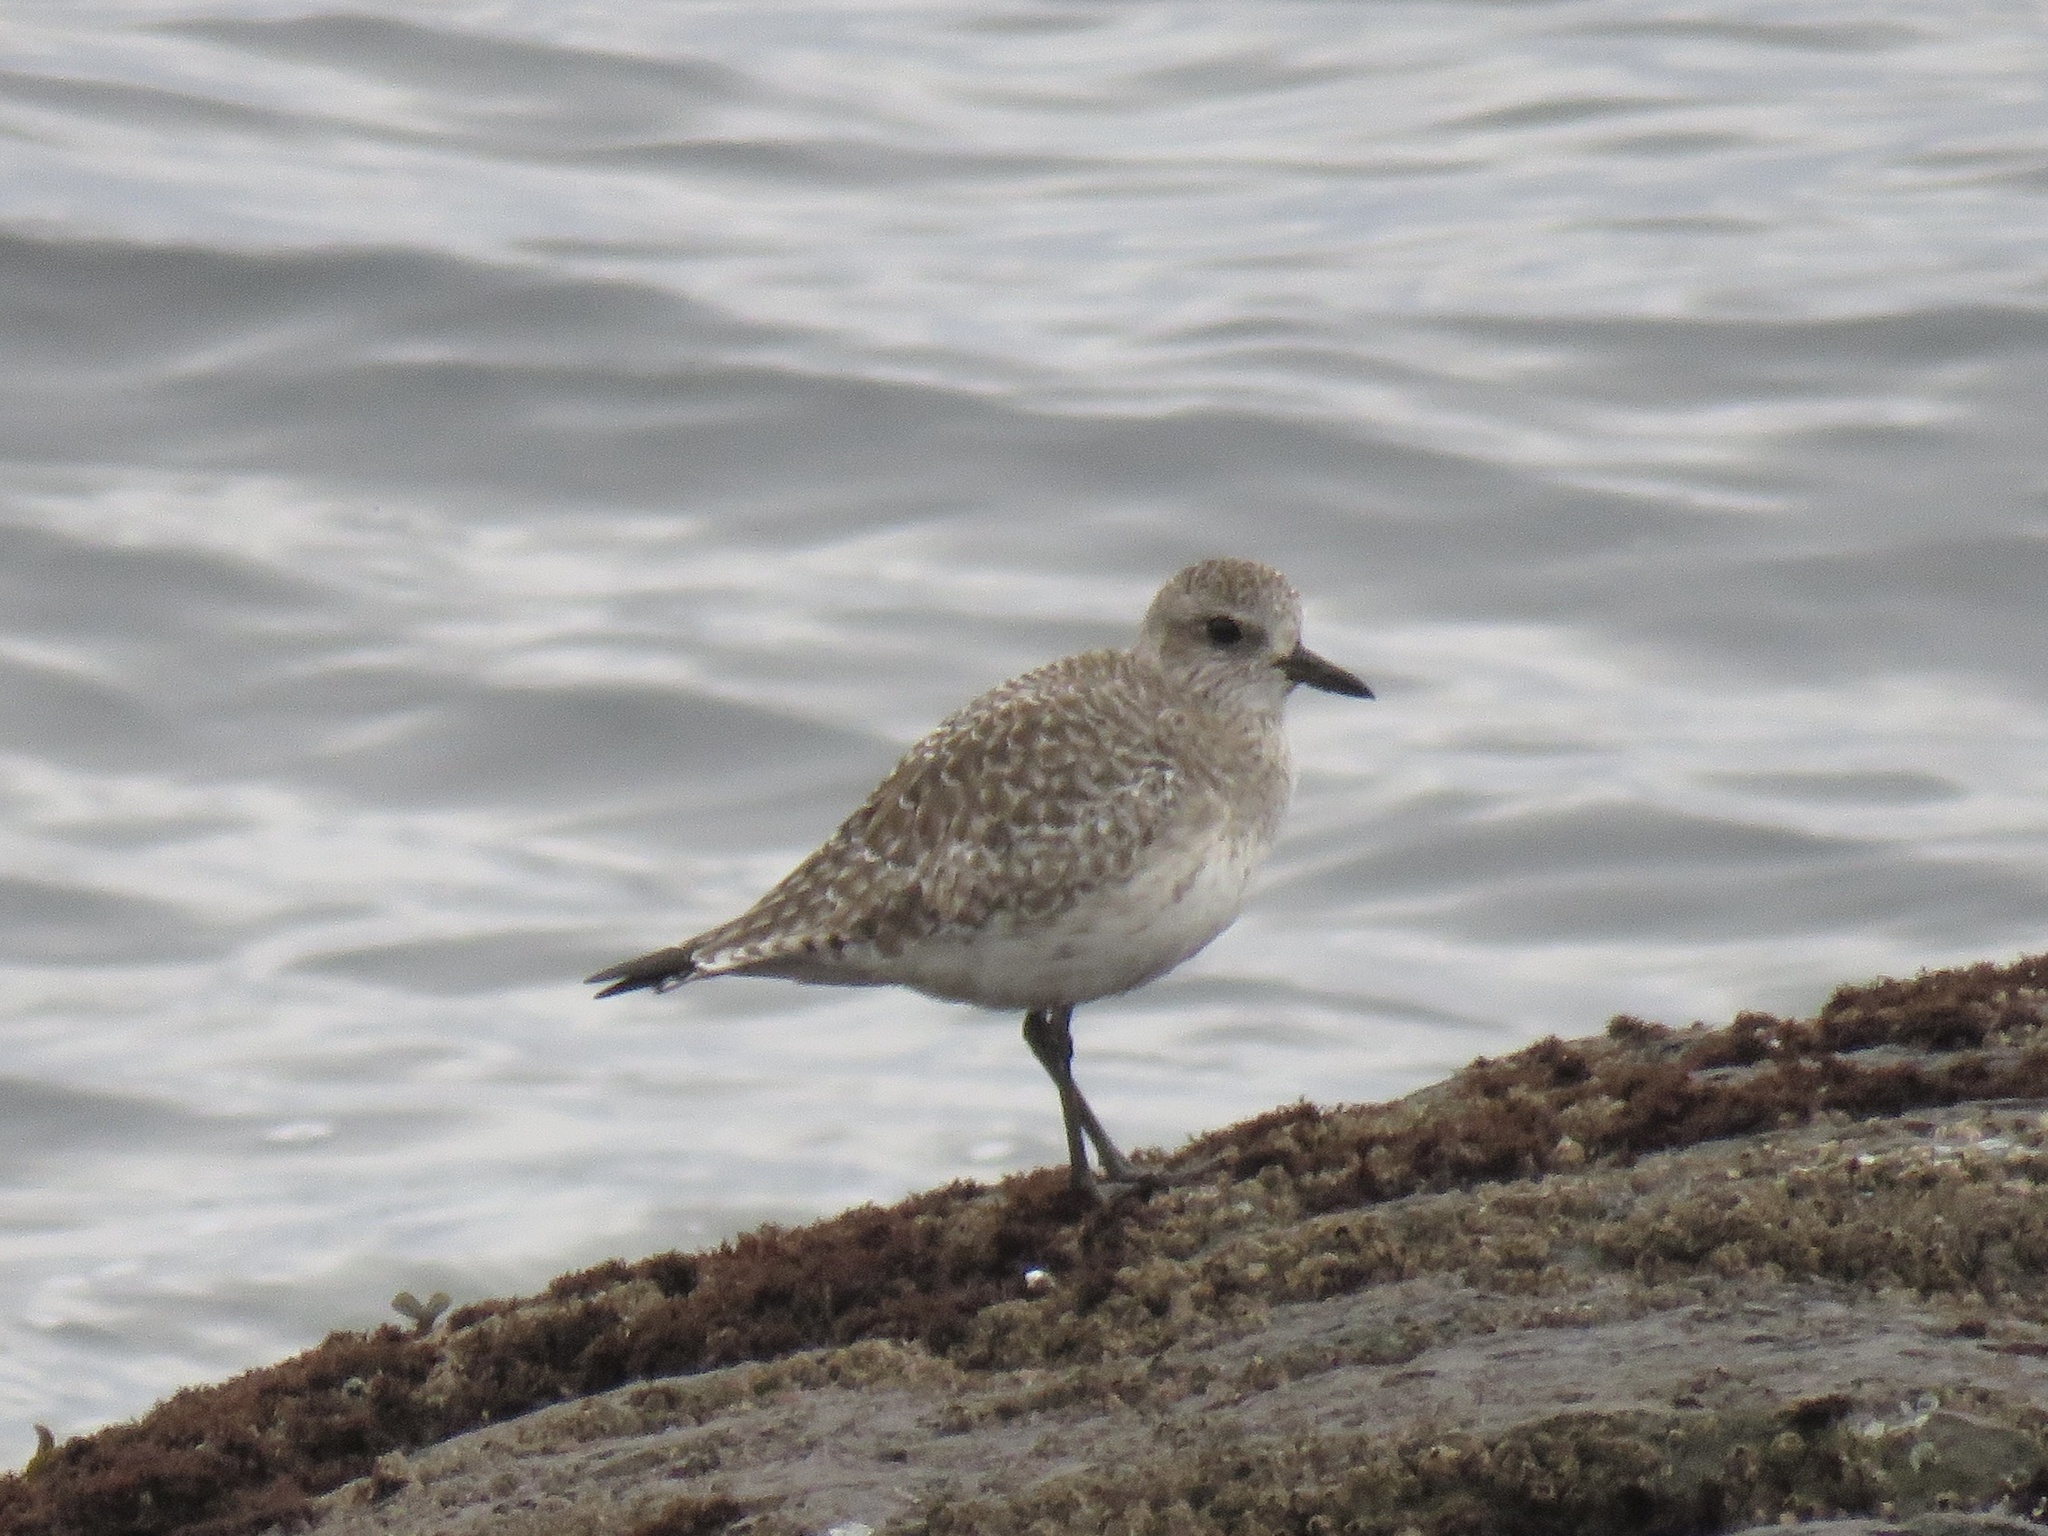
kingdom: Animalia
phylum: Chordata
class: Aves
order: Charadriiformes
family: Charadriidae
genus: Pluvialis
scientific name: Pluvialis squatarola
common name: Grey plover
